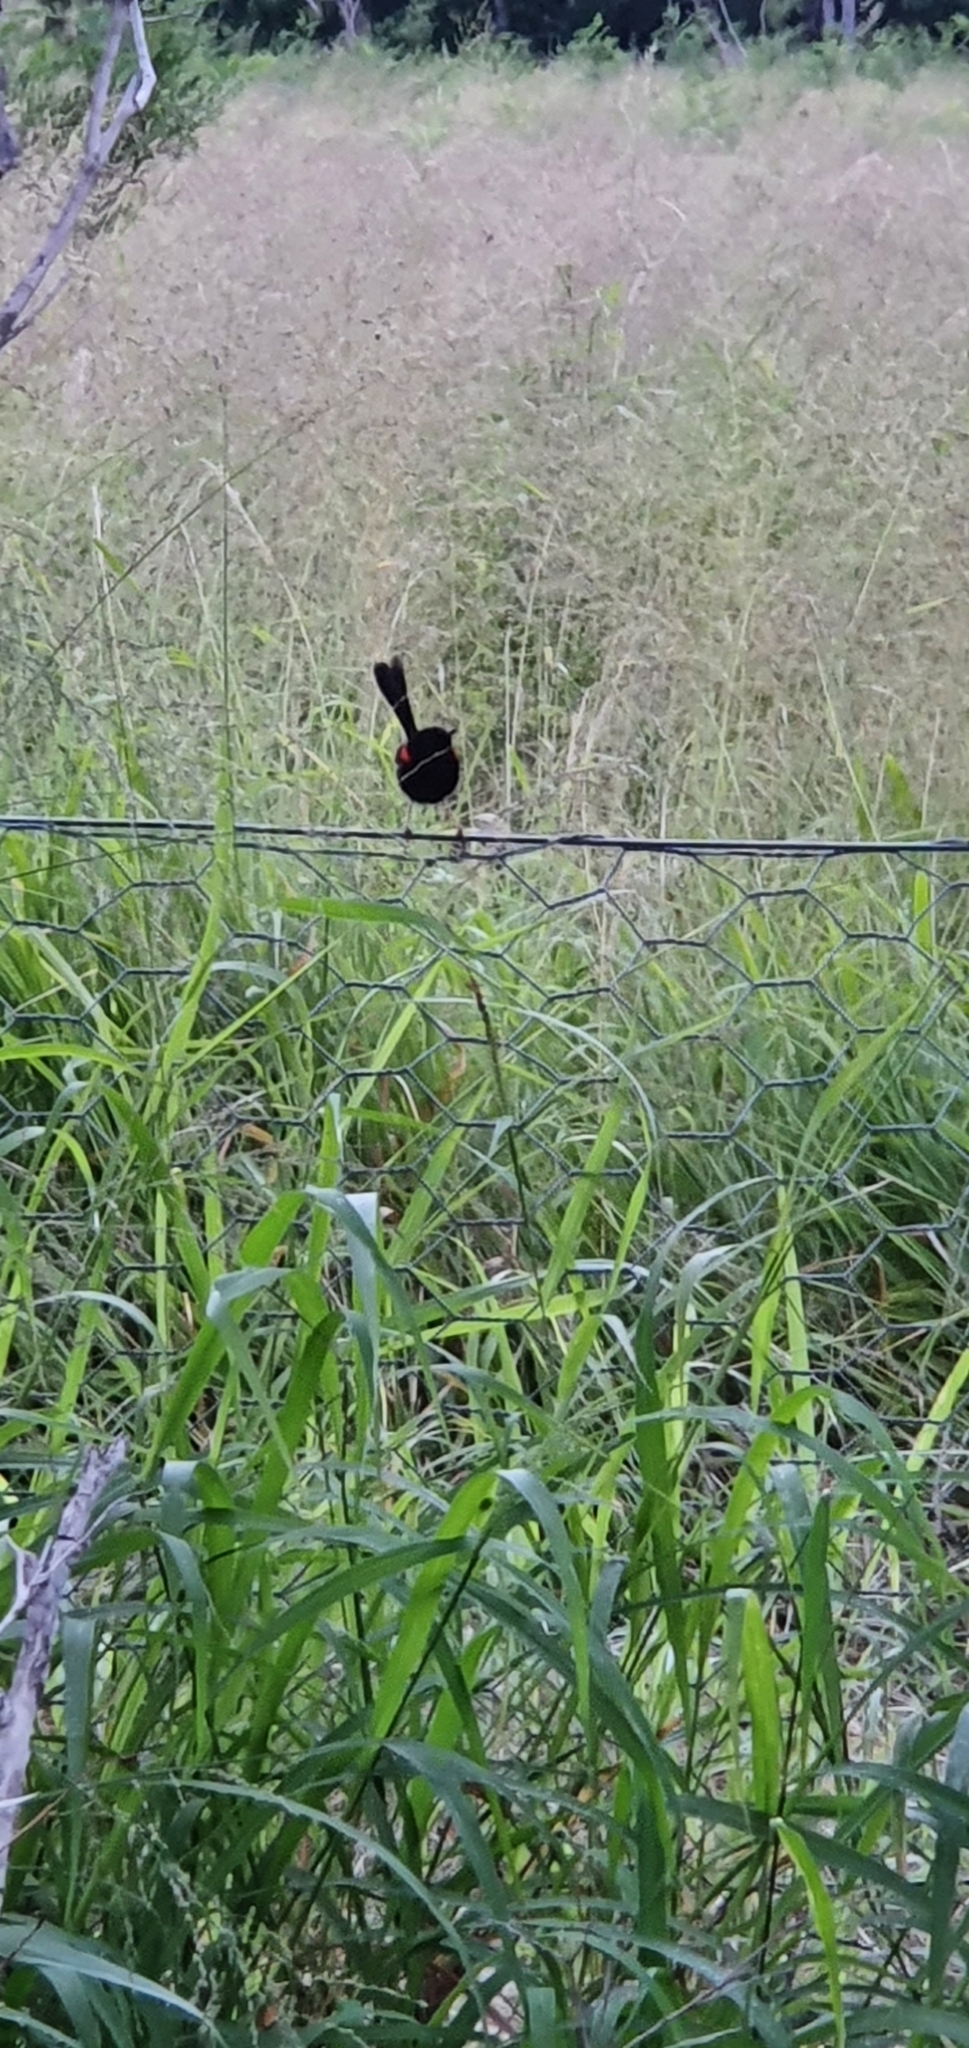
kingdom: Animalia
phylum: Chordata
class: Aves
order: Passeriformes
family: Maluridae
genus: Malurus
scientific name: Malurus melanocephalus
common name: Red-backed fairywren
